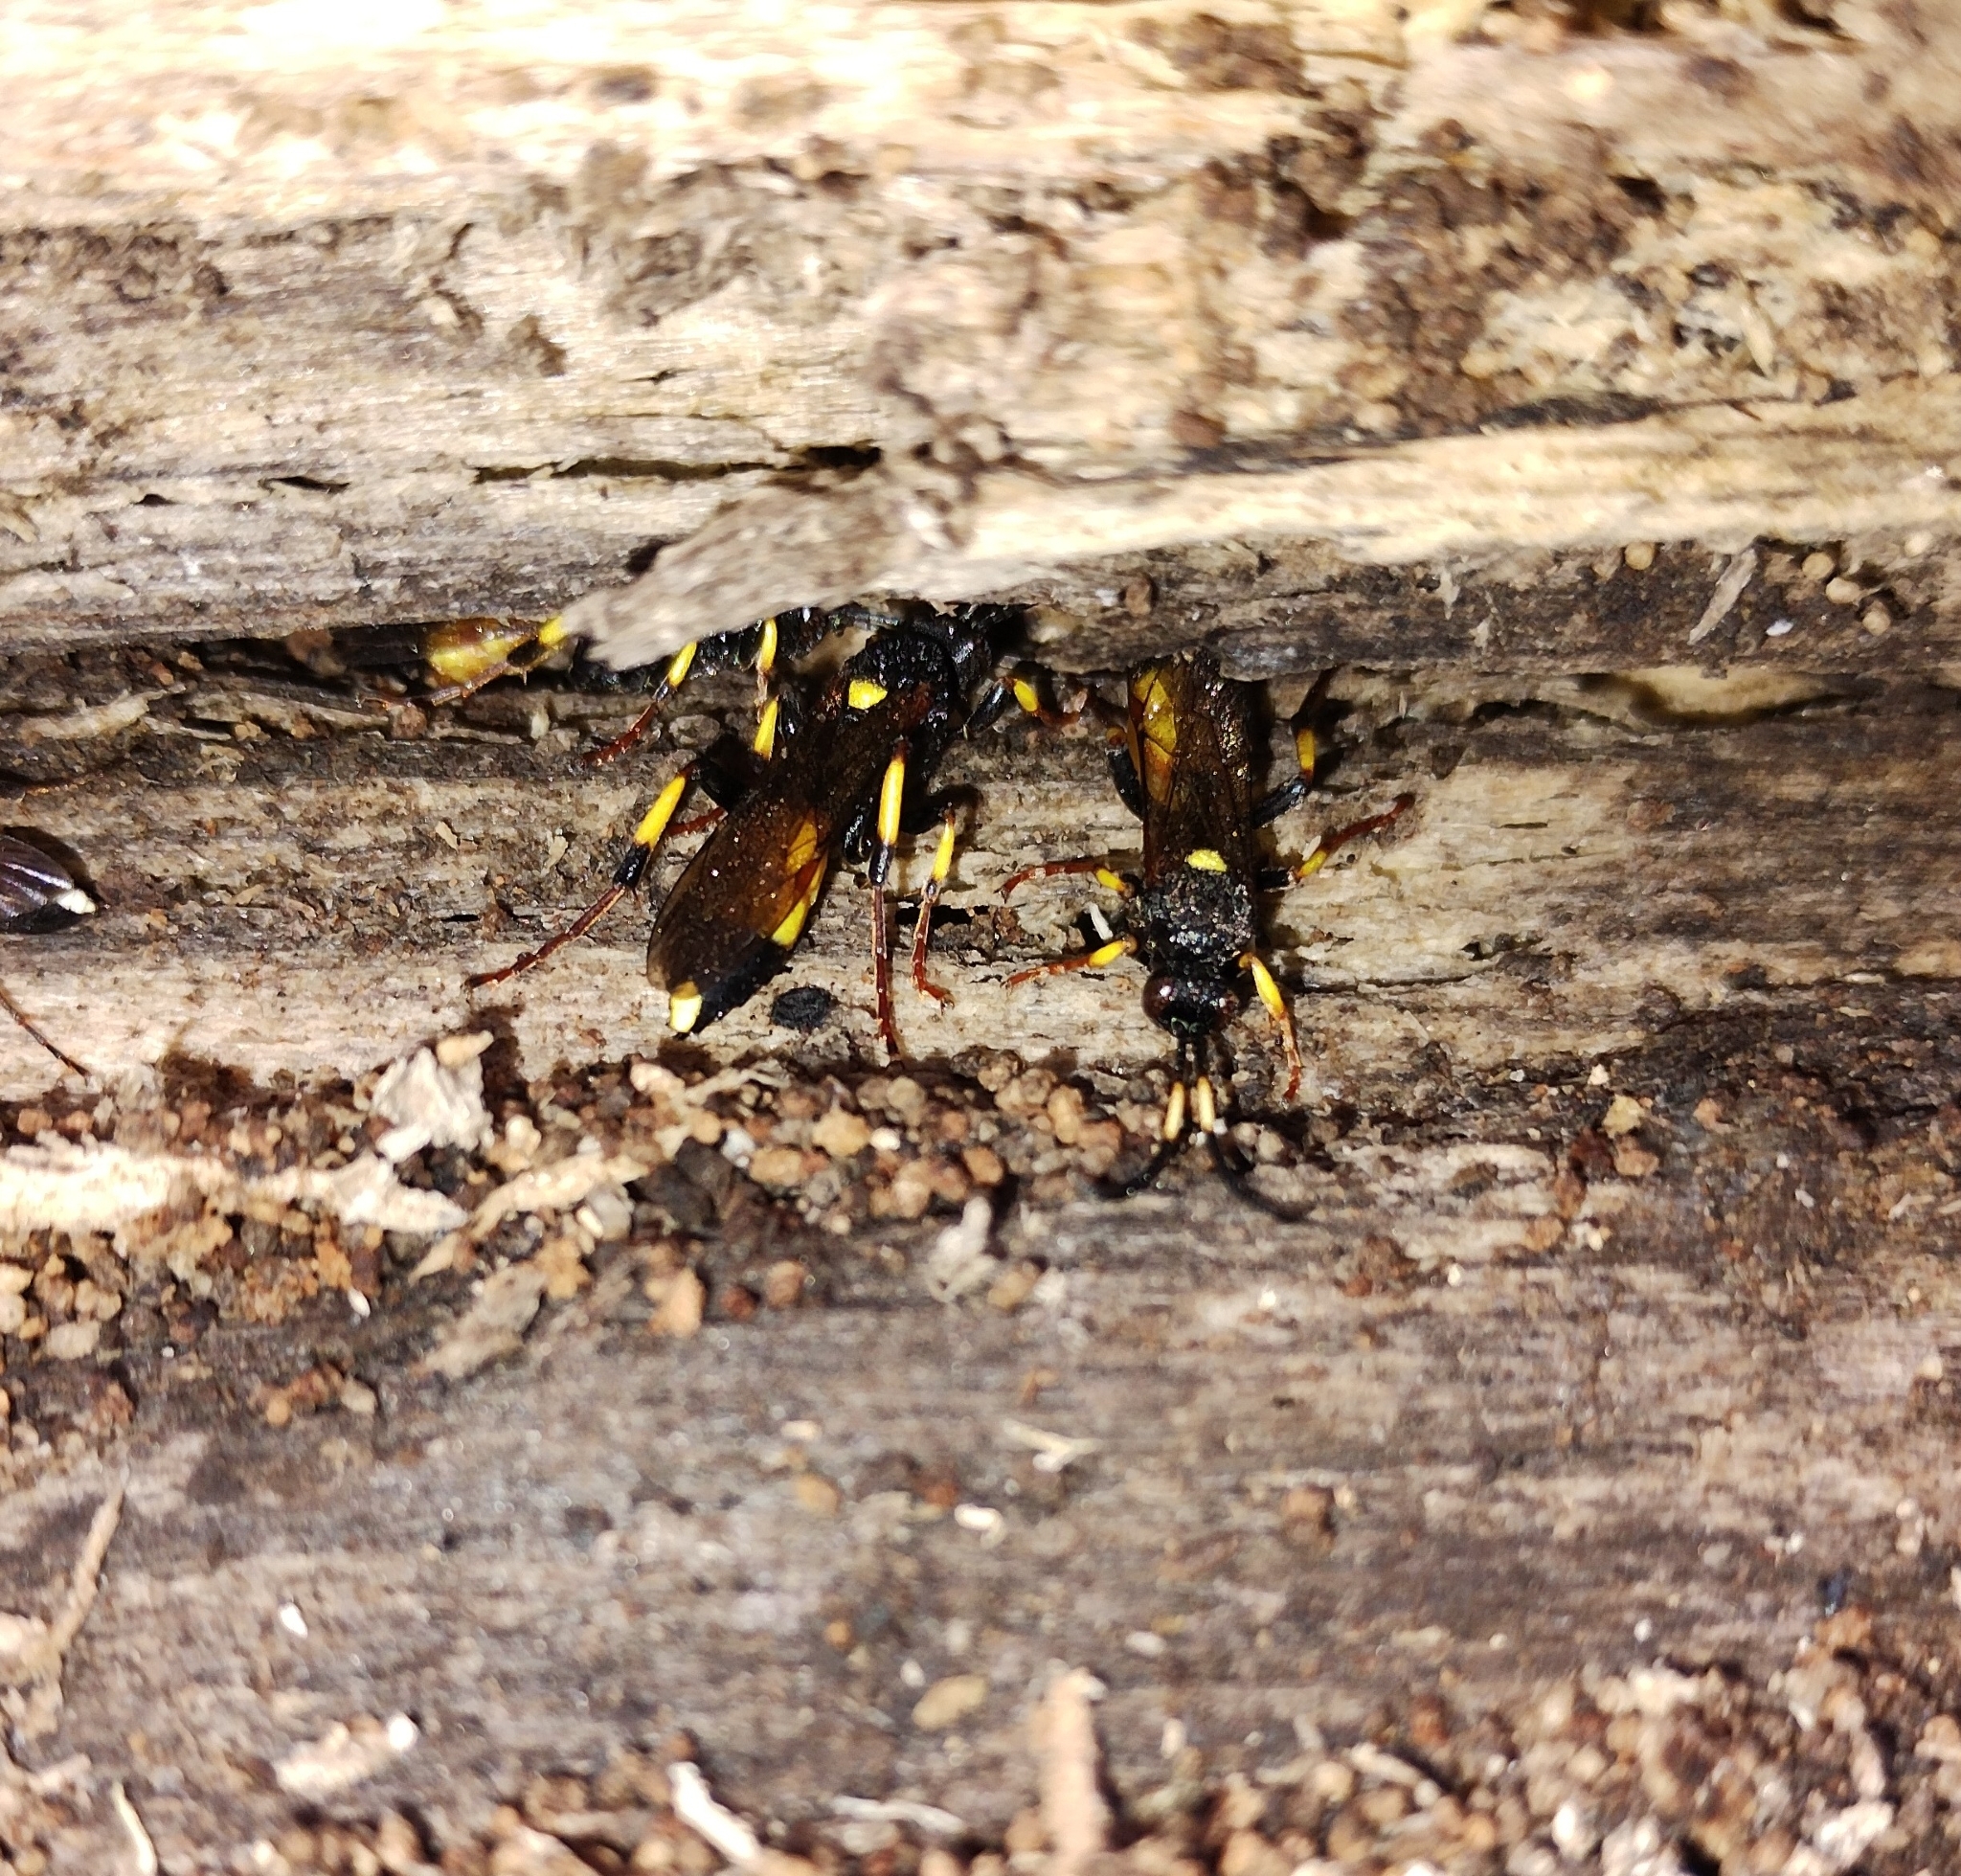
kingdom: Animalia
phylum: Arthropoda
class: Insecta
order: Hymenoptera
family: Ichneumonidae
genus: Ichneumon
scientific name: Ichneumon stramentor
